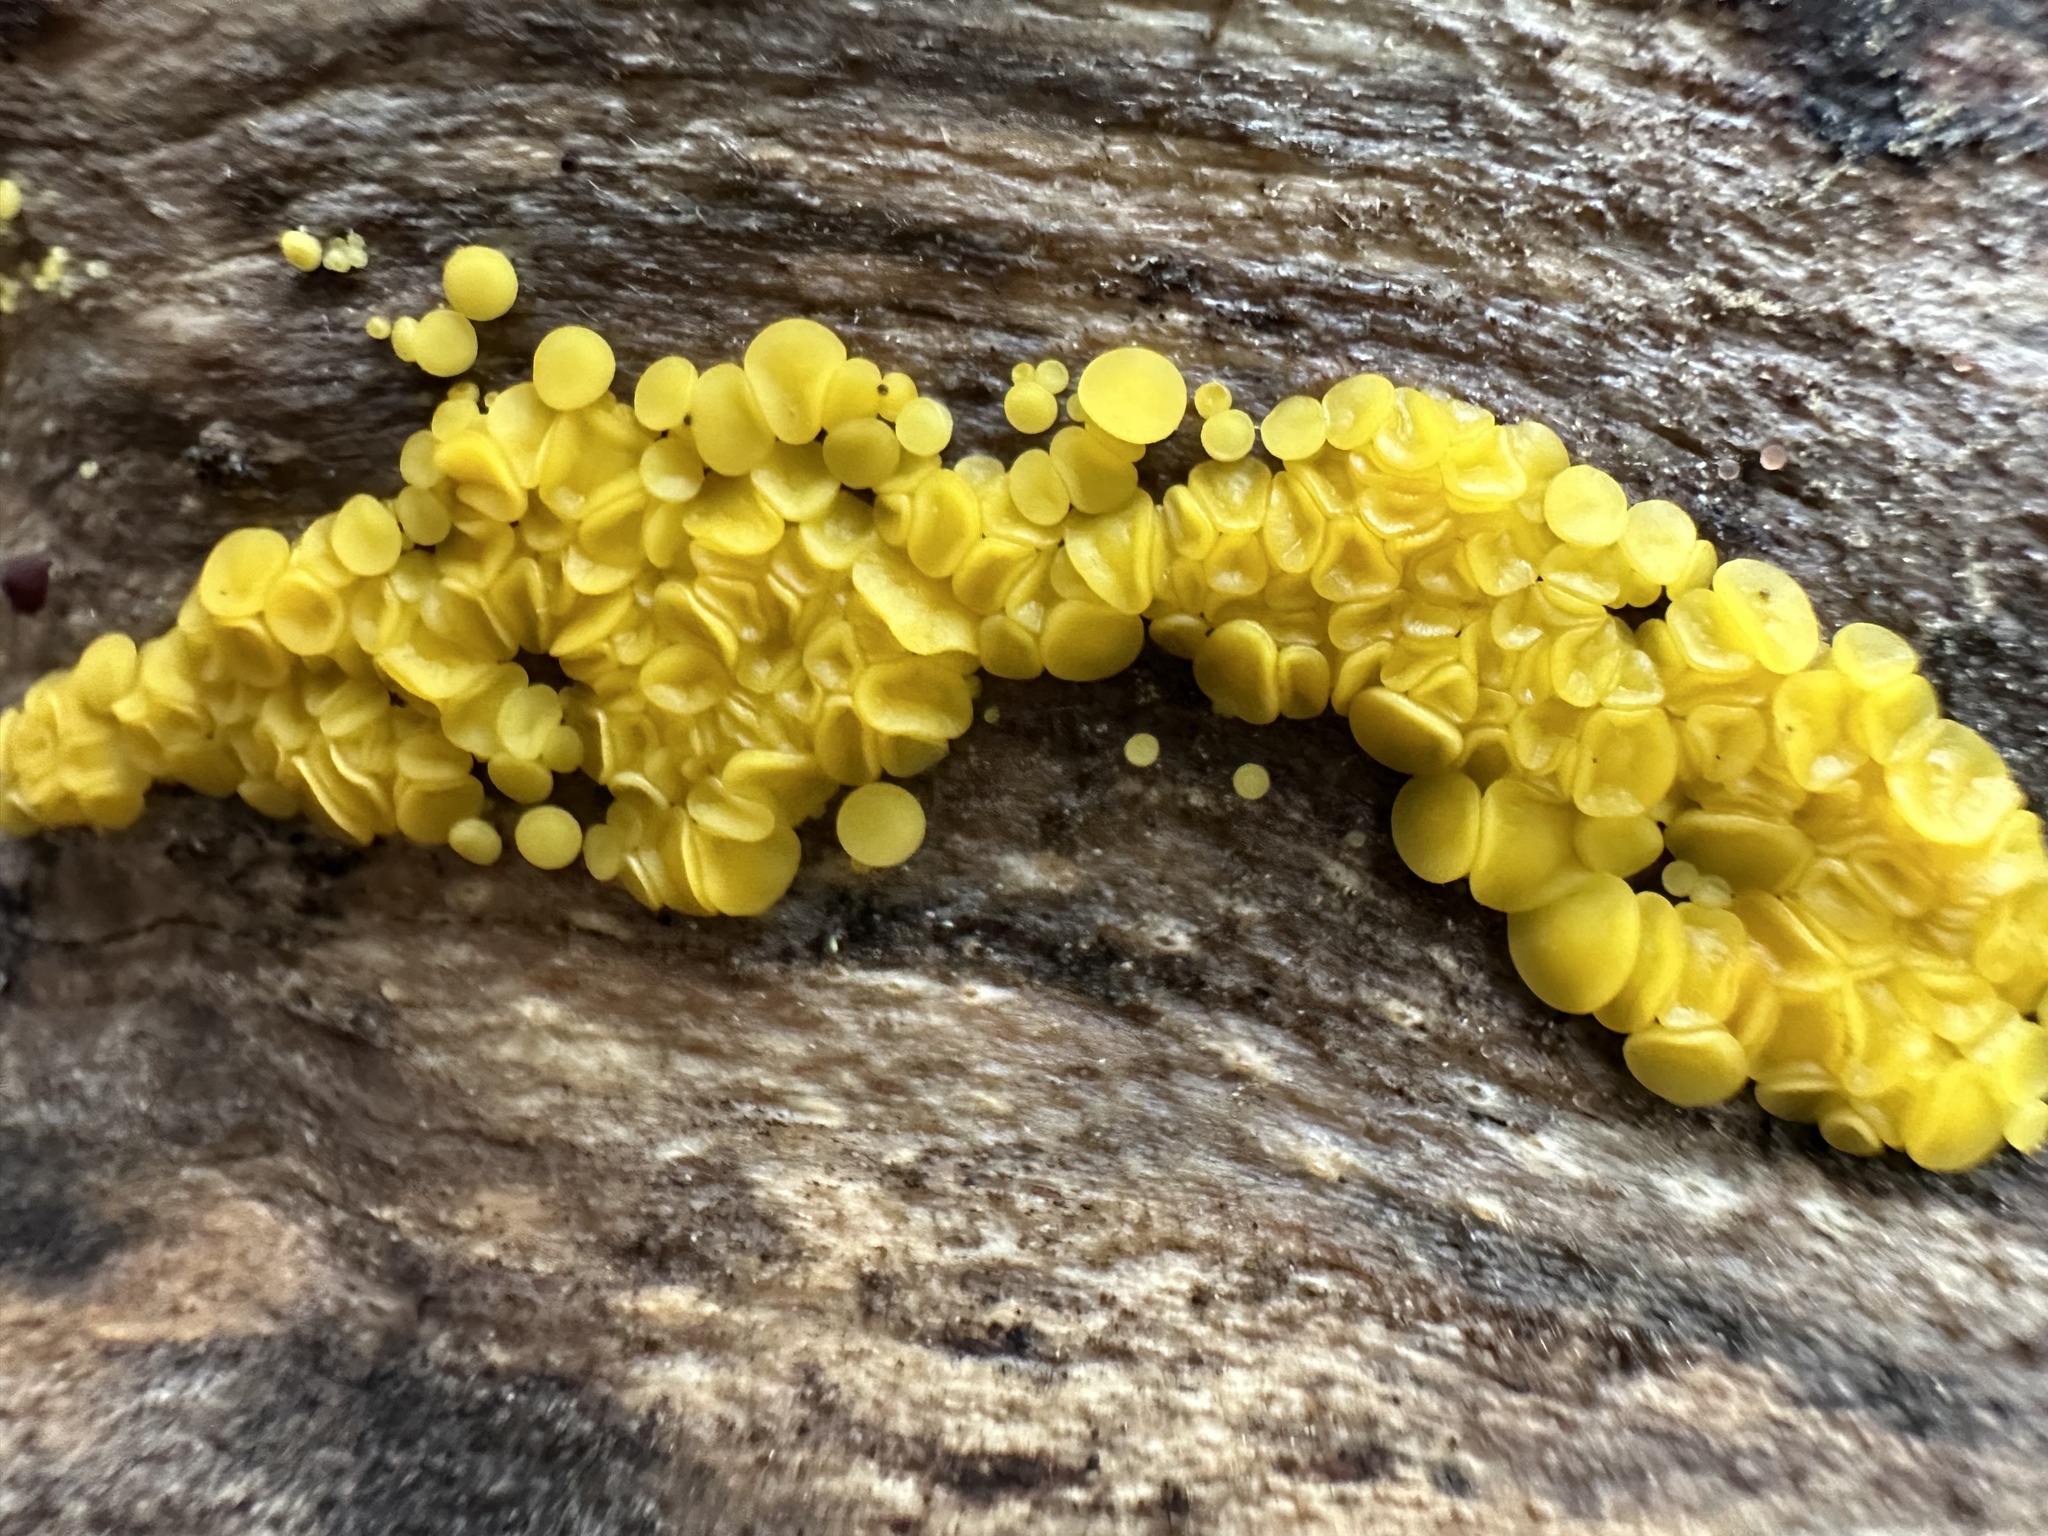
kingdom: Fungi
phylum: Ascomycota
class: Leotiomycetes
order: Helotiales
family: Pezizellaceae
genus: Calycina
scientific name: Calycina citrina
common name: Yellow fairy cups
